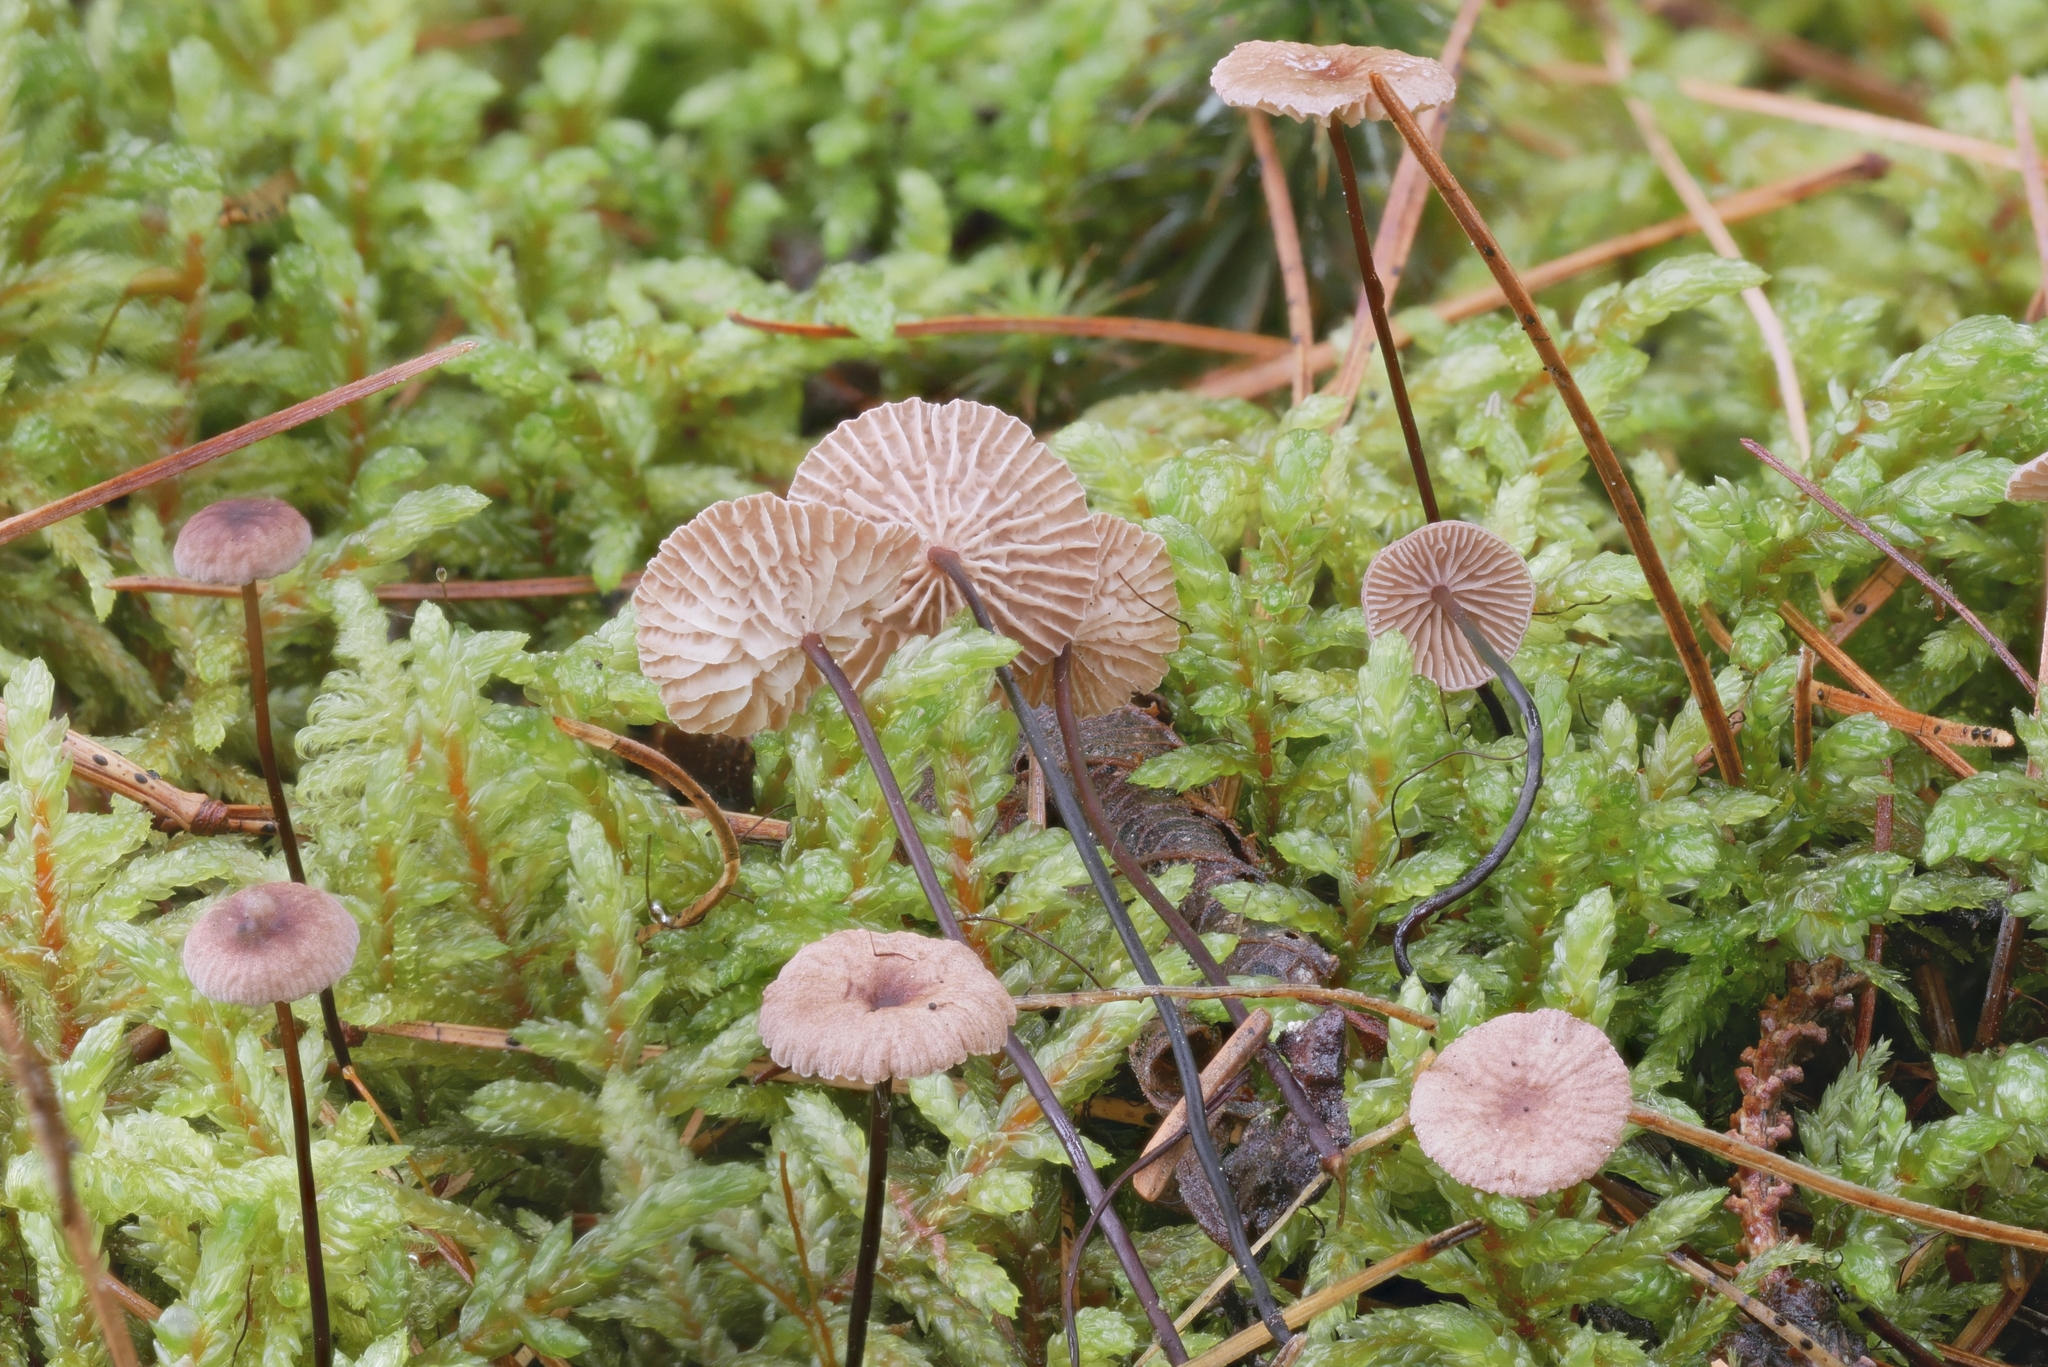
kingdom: Fungi
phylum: Basidiomycota
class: Agaricomycetes
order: Agaricales
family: Omphalotaceae
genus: Gymnopus
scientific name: Gymnopus androsaceus
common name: Horse-hair fungus
